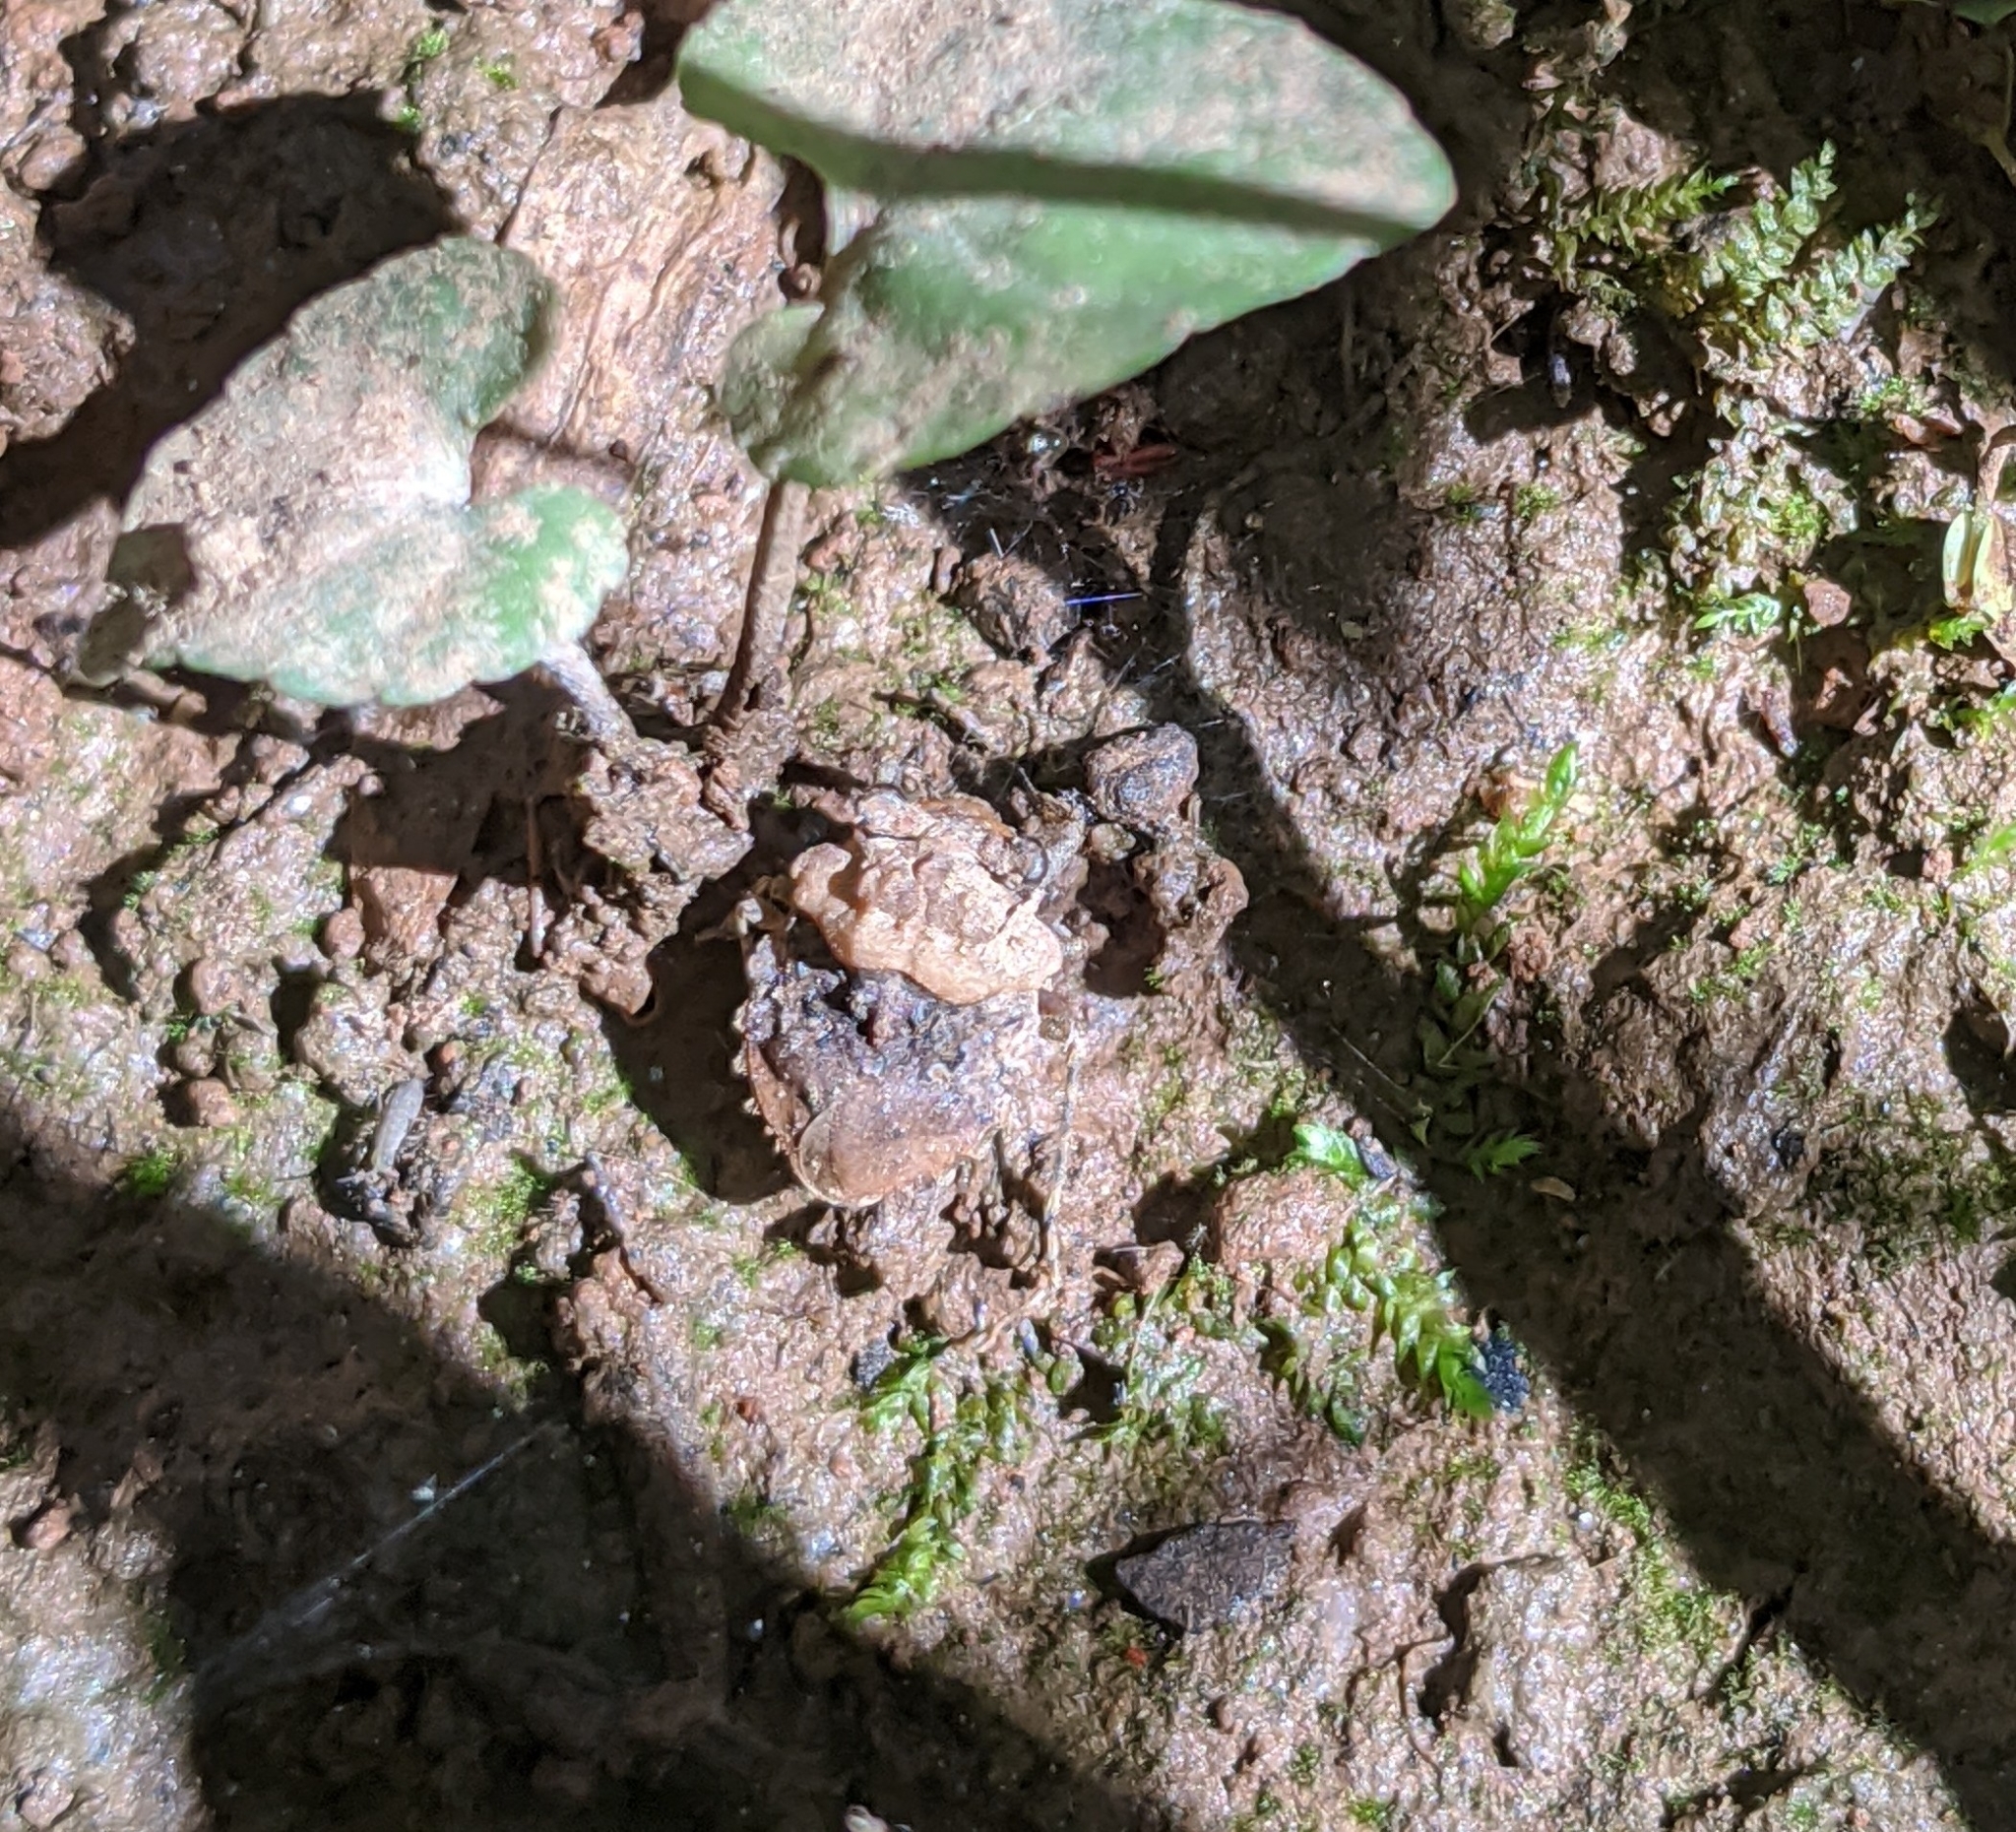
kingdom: Animalia
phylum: Arthropoda
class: Insecta
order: Hemiptera
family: Gelastocoridae
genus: Gelastocoris
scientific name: Gelastocoris oculatus
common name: Toad bug
